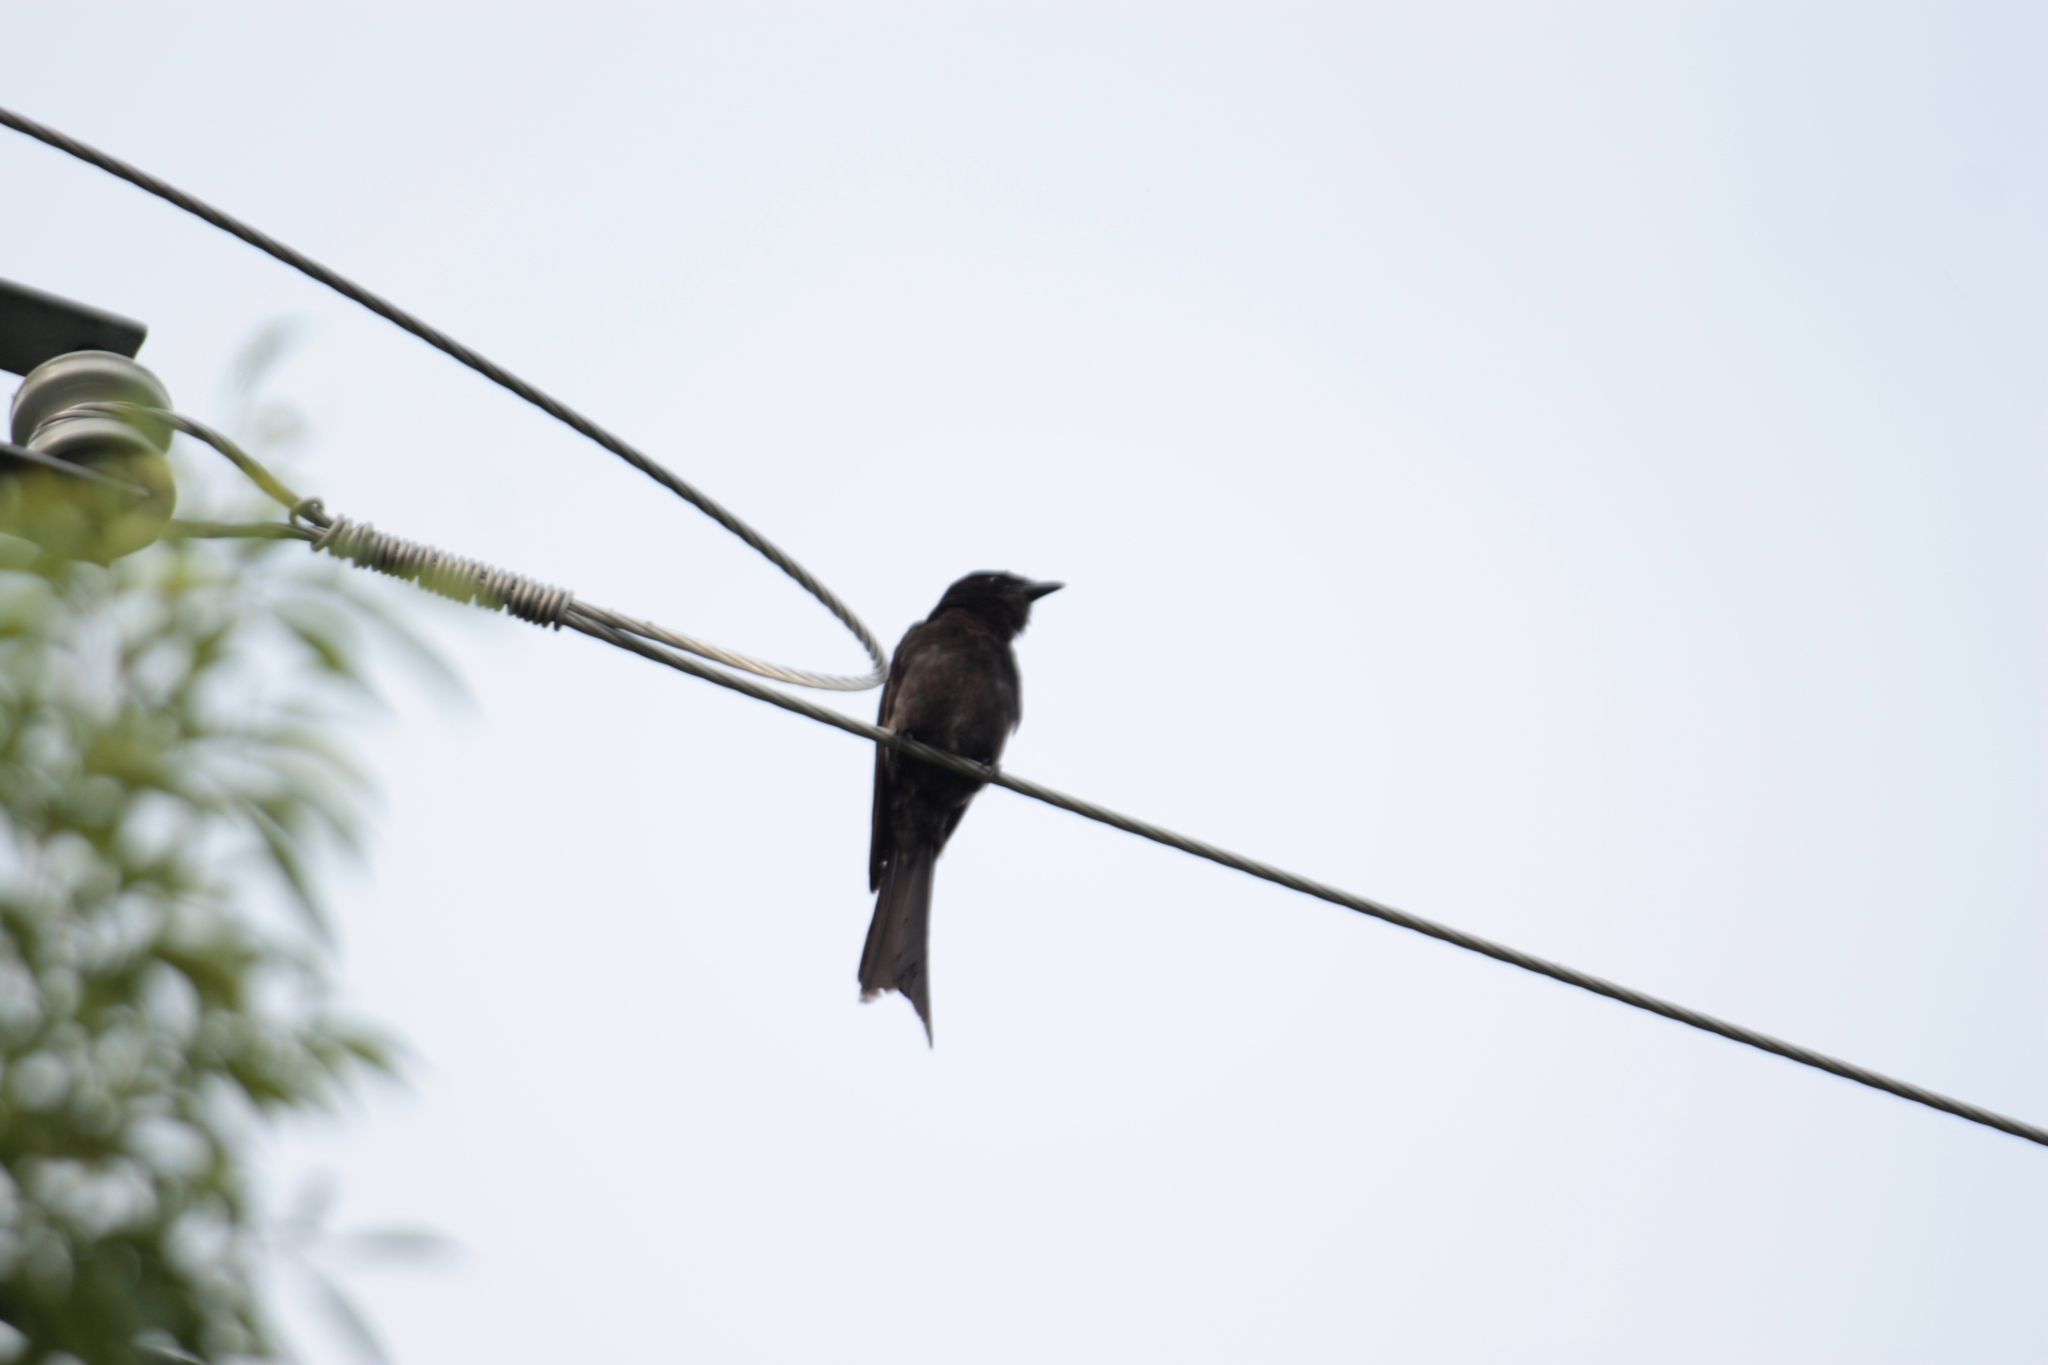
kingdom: Animalia
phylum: Chordata
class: Aves
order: Passeriformes
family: Dicruridae
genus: Dicrurus
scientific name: Dicrurus macrocercus
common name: Black drongo
